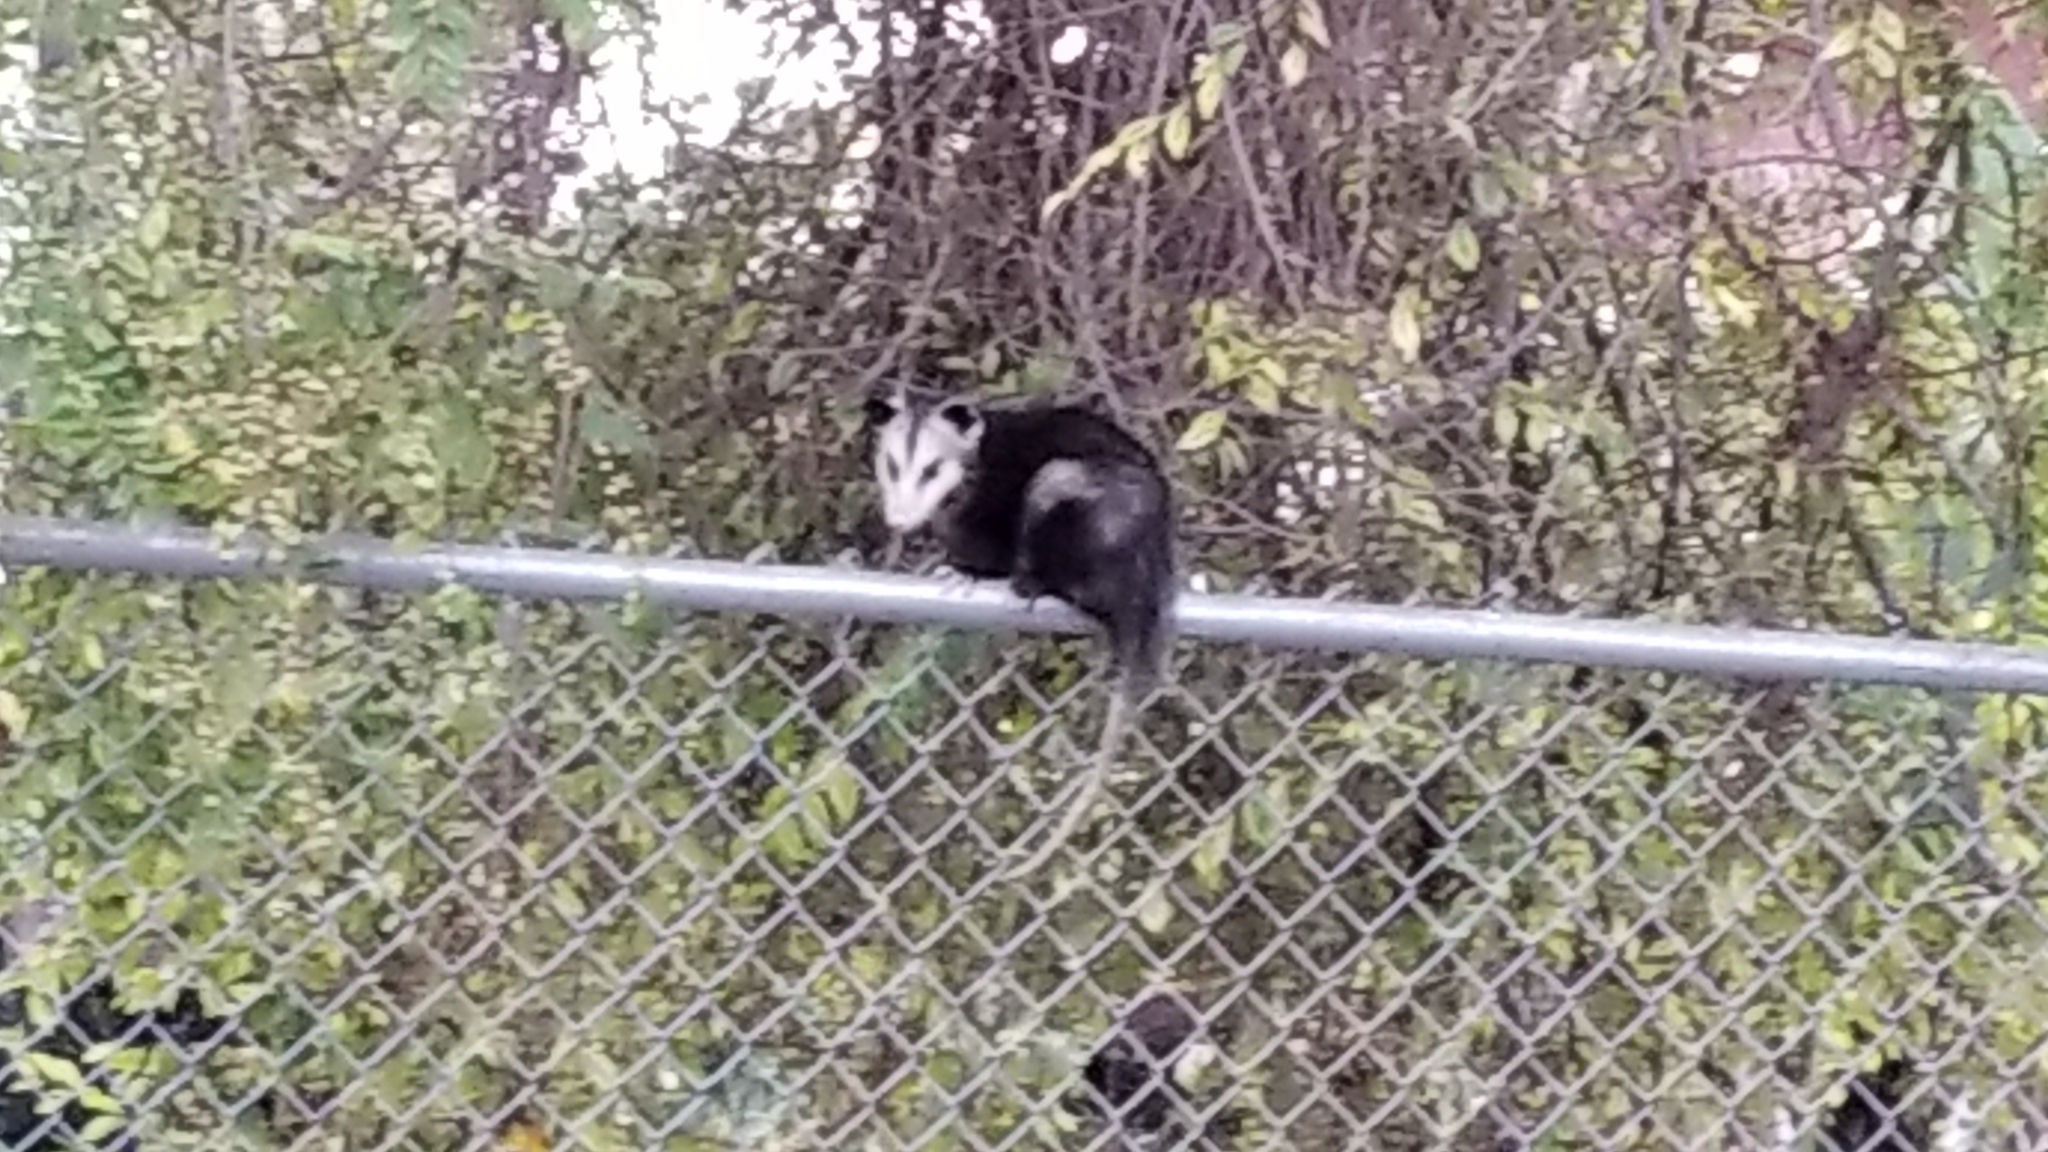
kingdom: Animalia
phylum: Chordata
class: Mammalia
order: Didelphimorphia
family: Didelphidae
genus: Didelphis
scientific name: Didelphis virginiana
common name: Virginia opossum
